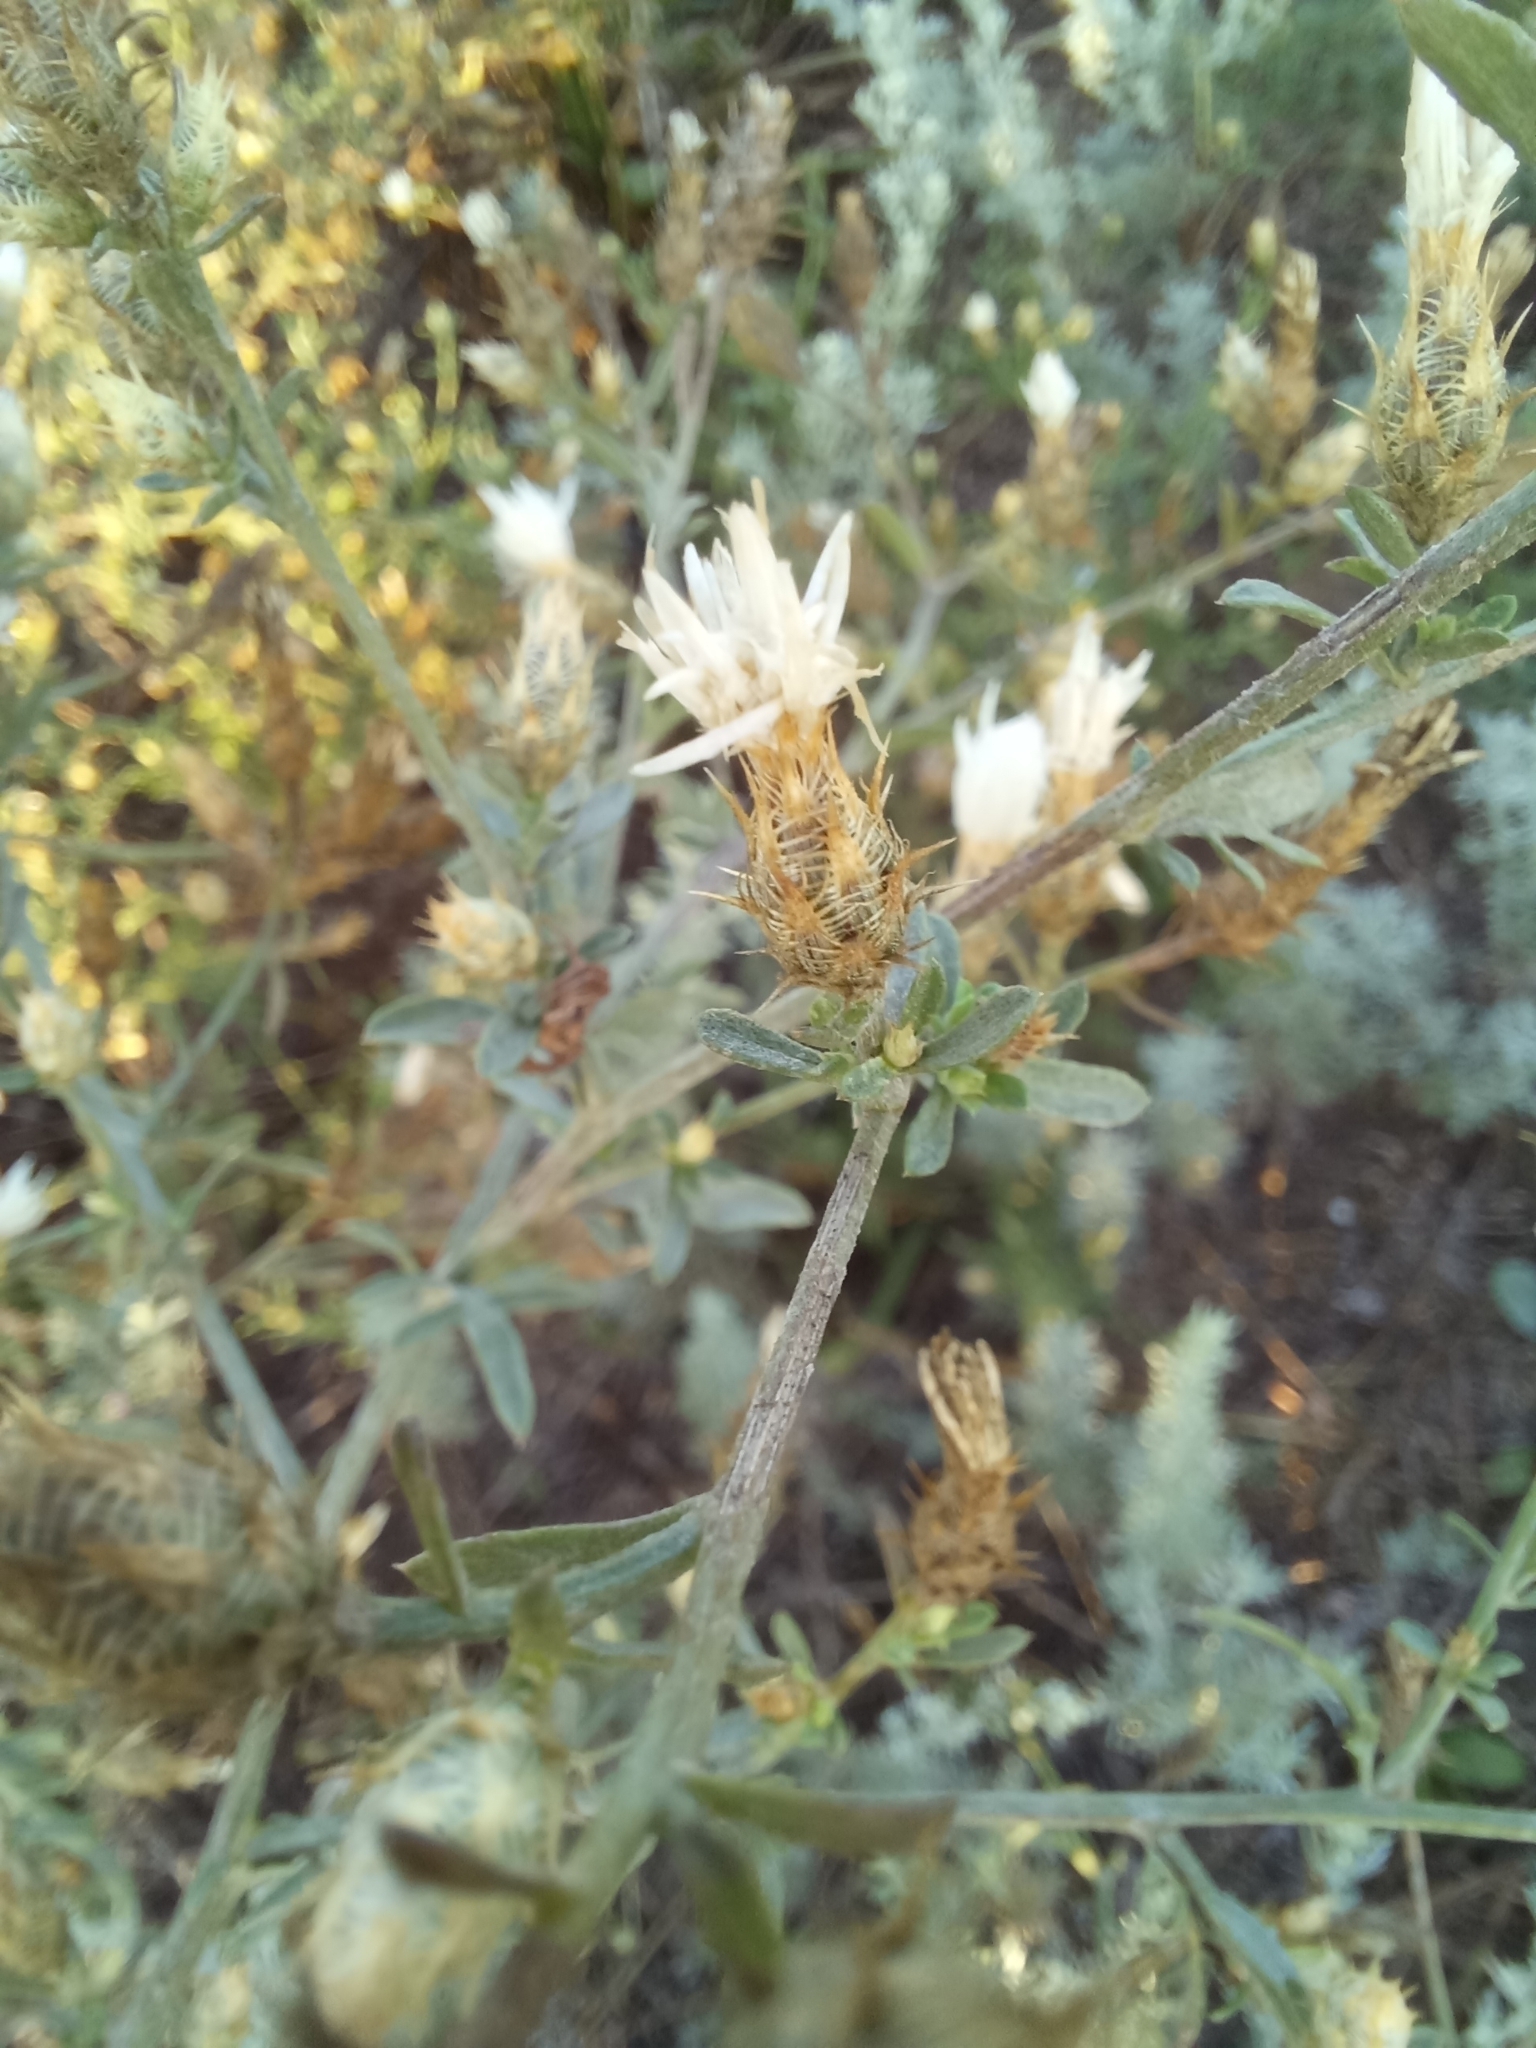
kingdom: Plantae
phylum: Tracheophyta
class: Magnoliopsida
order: Asterales
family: Asteraceae
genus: Centaurea
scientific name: Centaurea diffusa
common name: Diffuse knapweed
